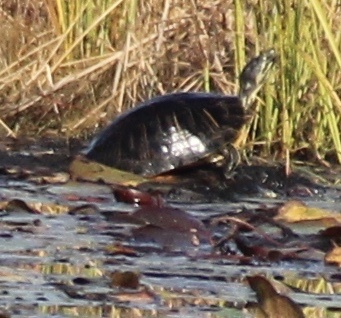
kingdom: Animalia
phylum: Chordata
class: Testudines
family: Emydidae
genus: Trachemys
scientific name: Trachemys scripta
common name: Slider
